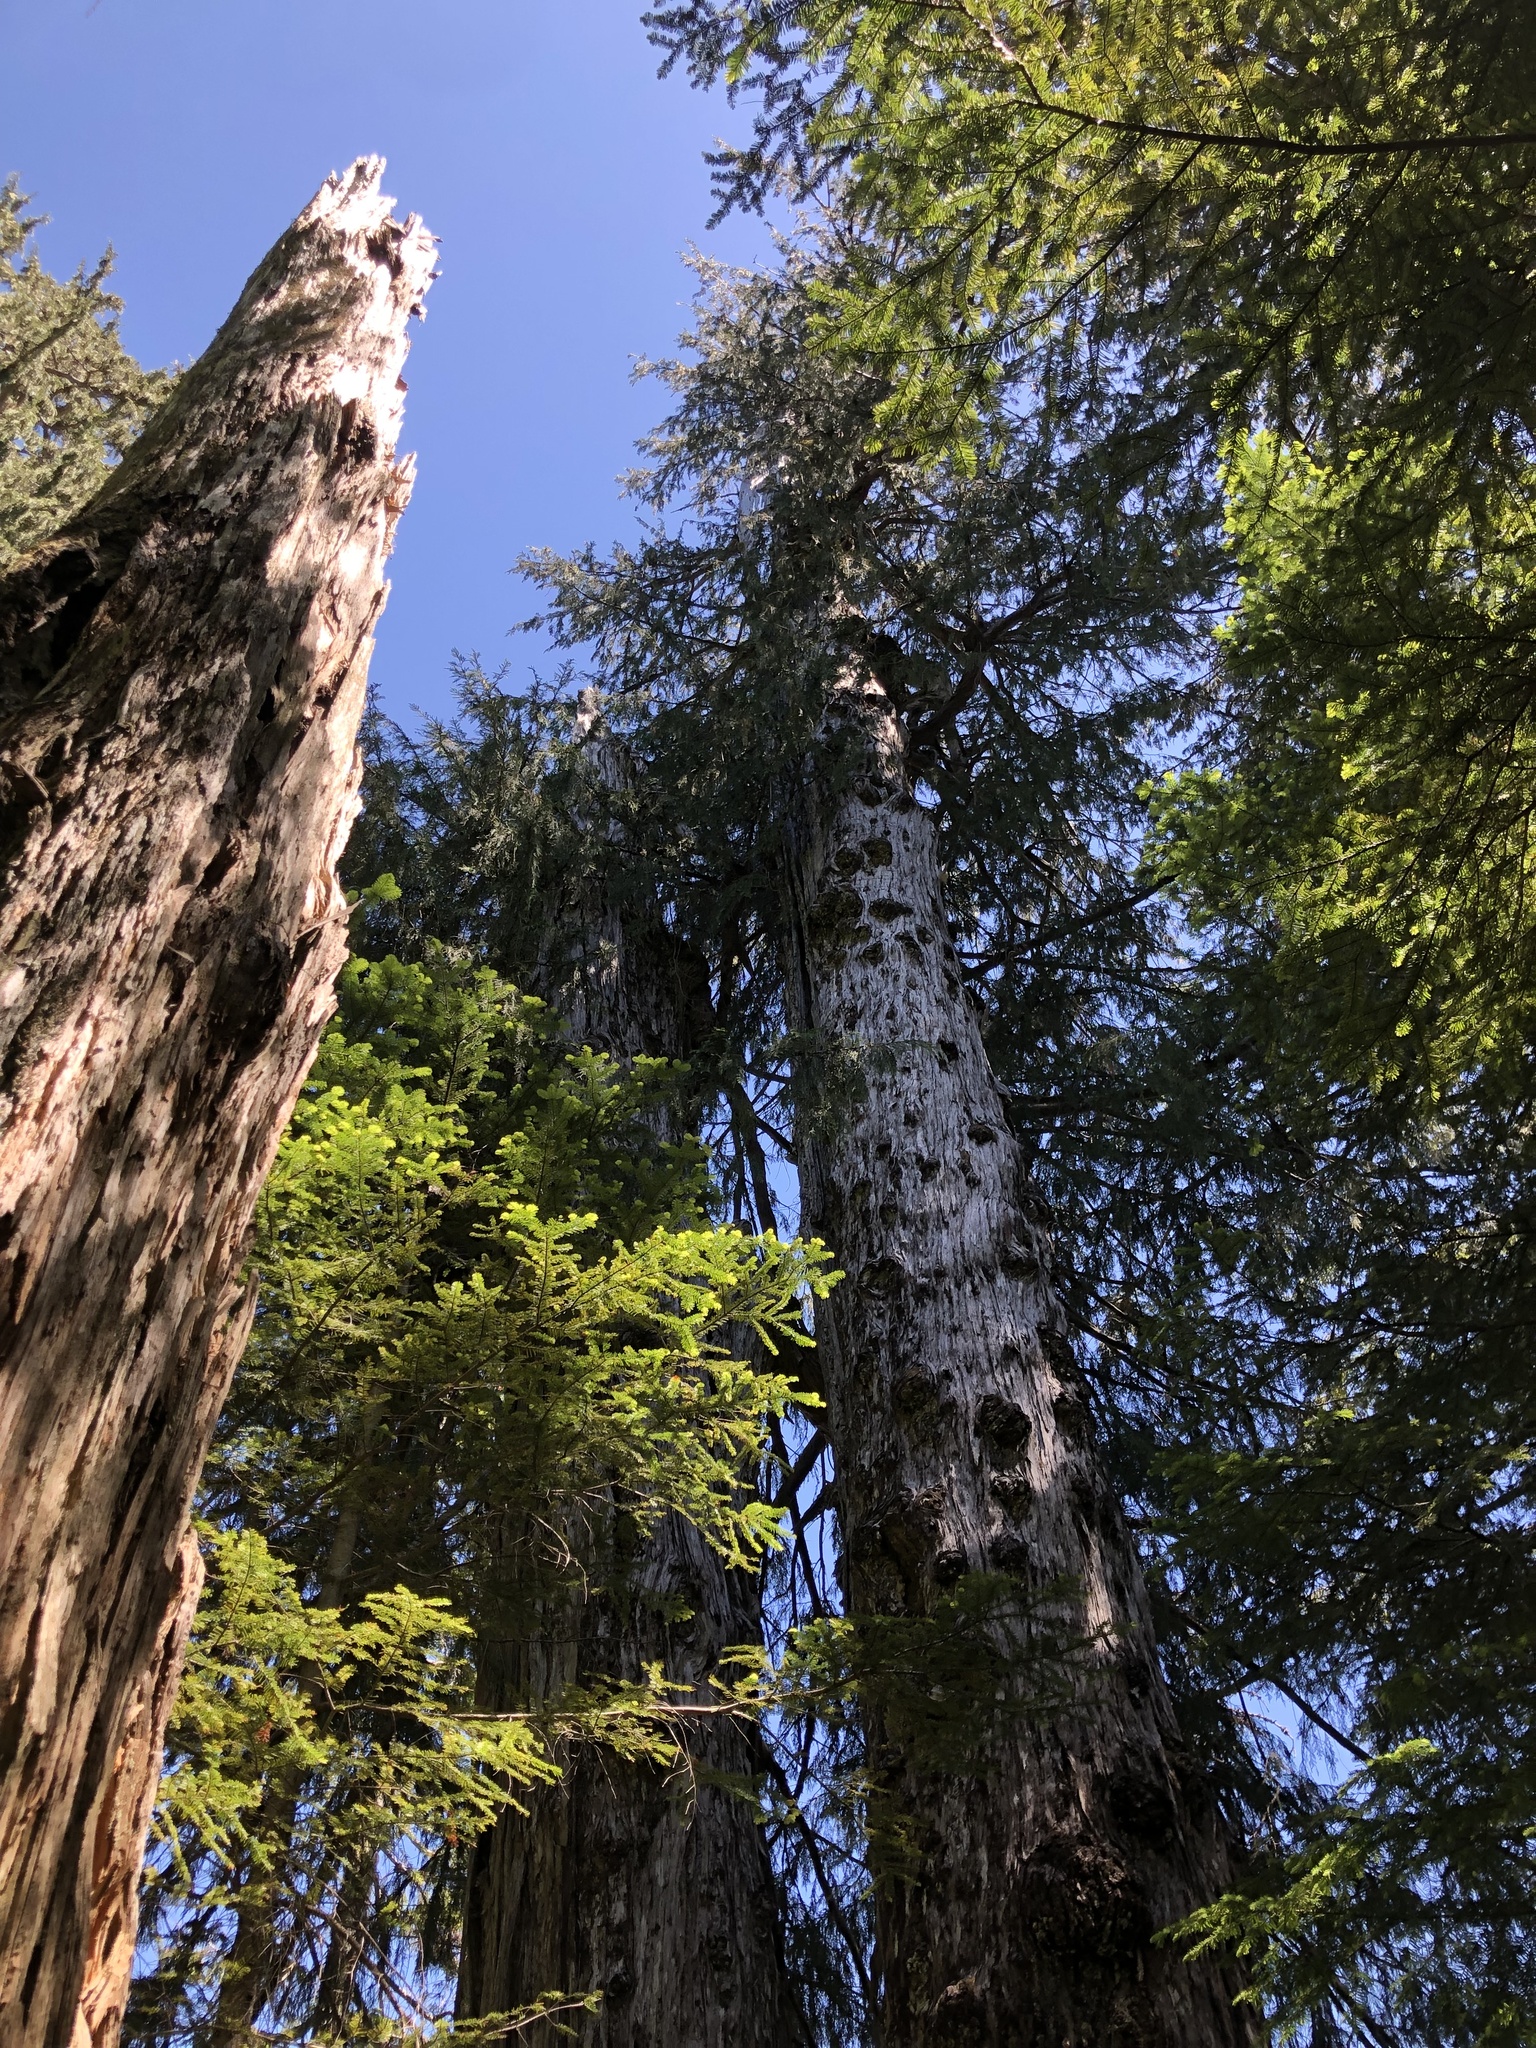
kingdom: Plantae
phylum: Tracheophyta
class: Pinopsida
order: Pinales
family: Cupressaceae
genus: Xanthocyparis
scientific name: Xanthocyparis nootkatensis
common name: Nootka cypress
